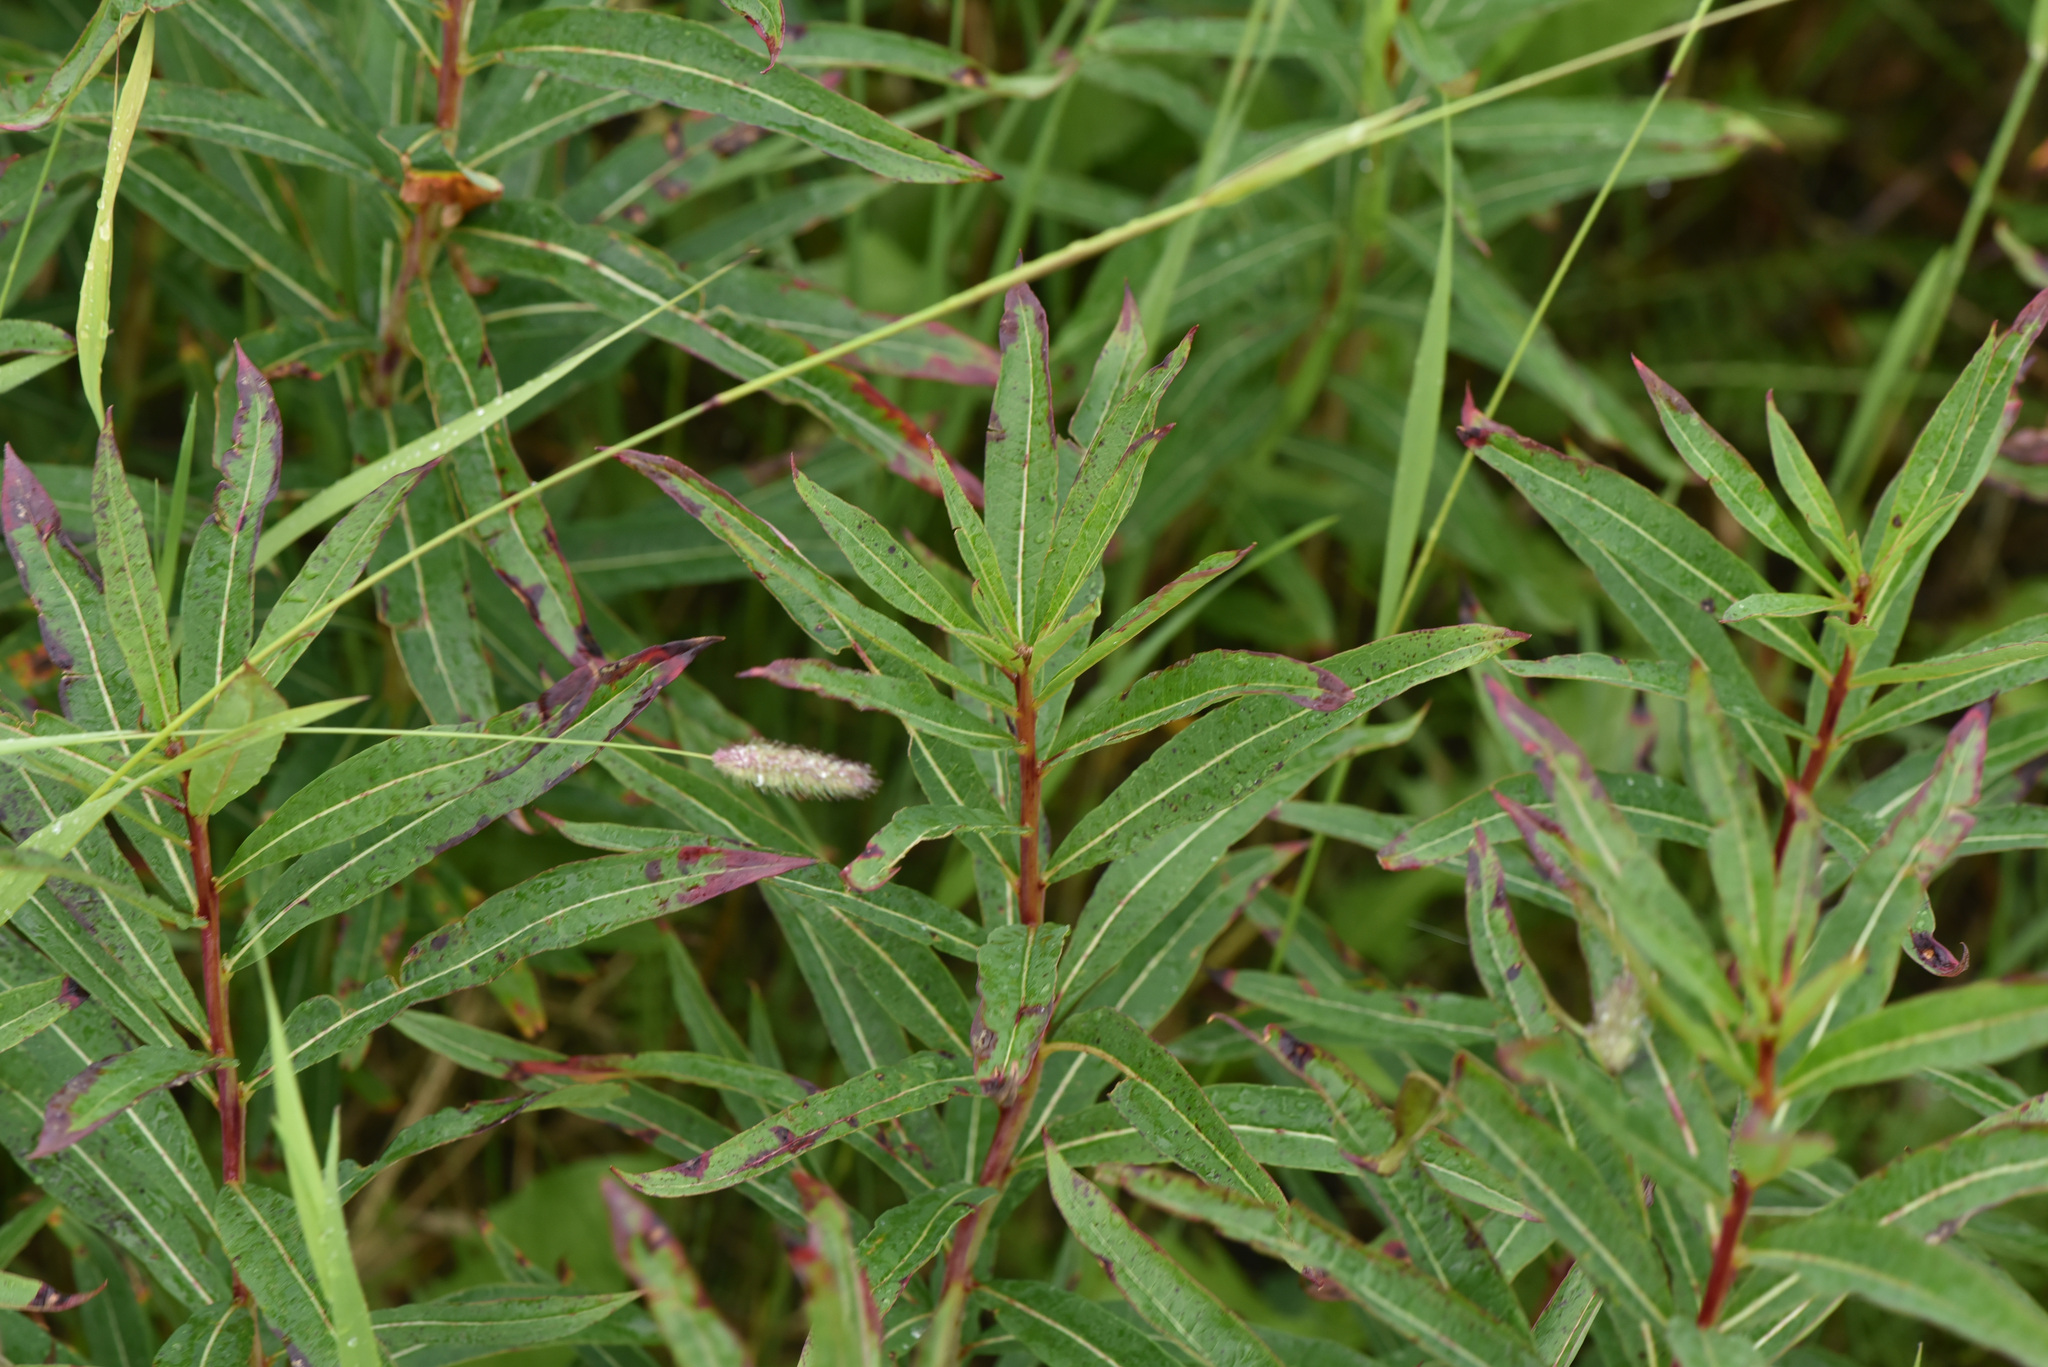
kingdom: Plantae
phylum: Tracheophyta
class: Magnoliopsida
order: Myrtales
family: Onagraceae
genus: Chamaenerion
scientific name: Chamaenerion angustifolium
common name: Fireweed
